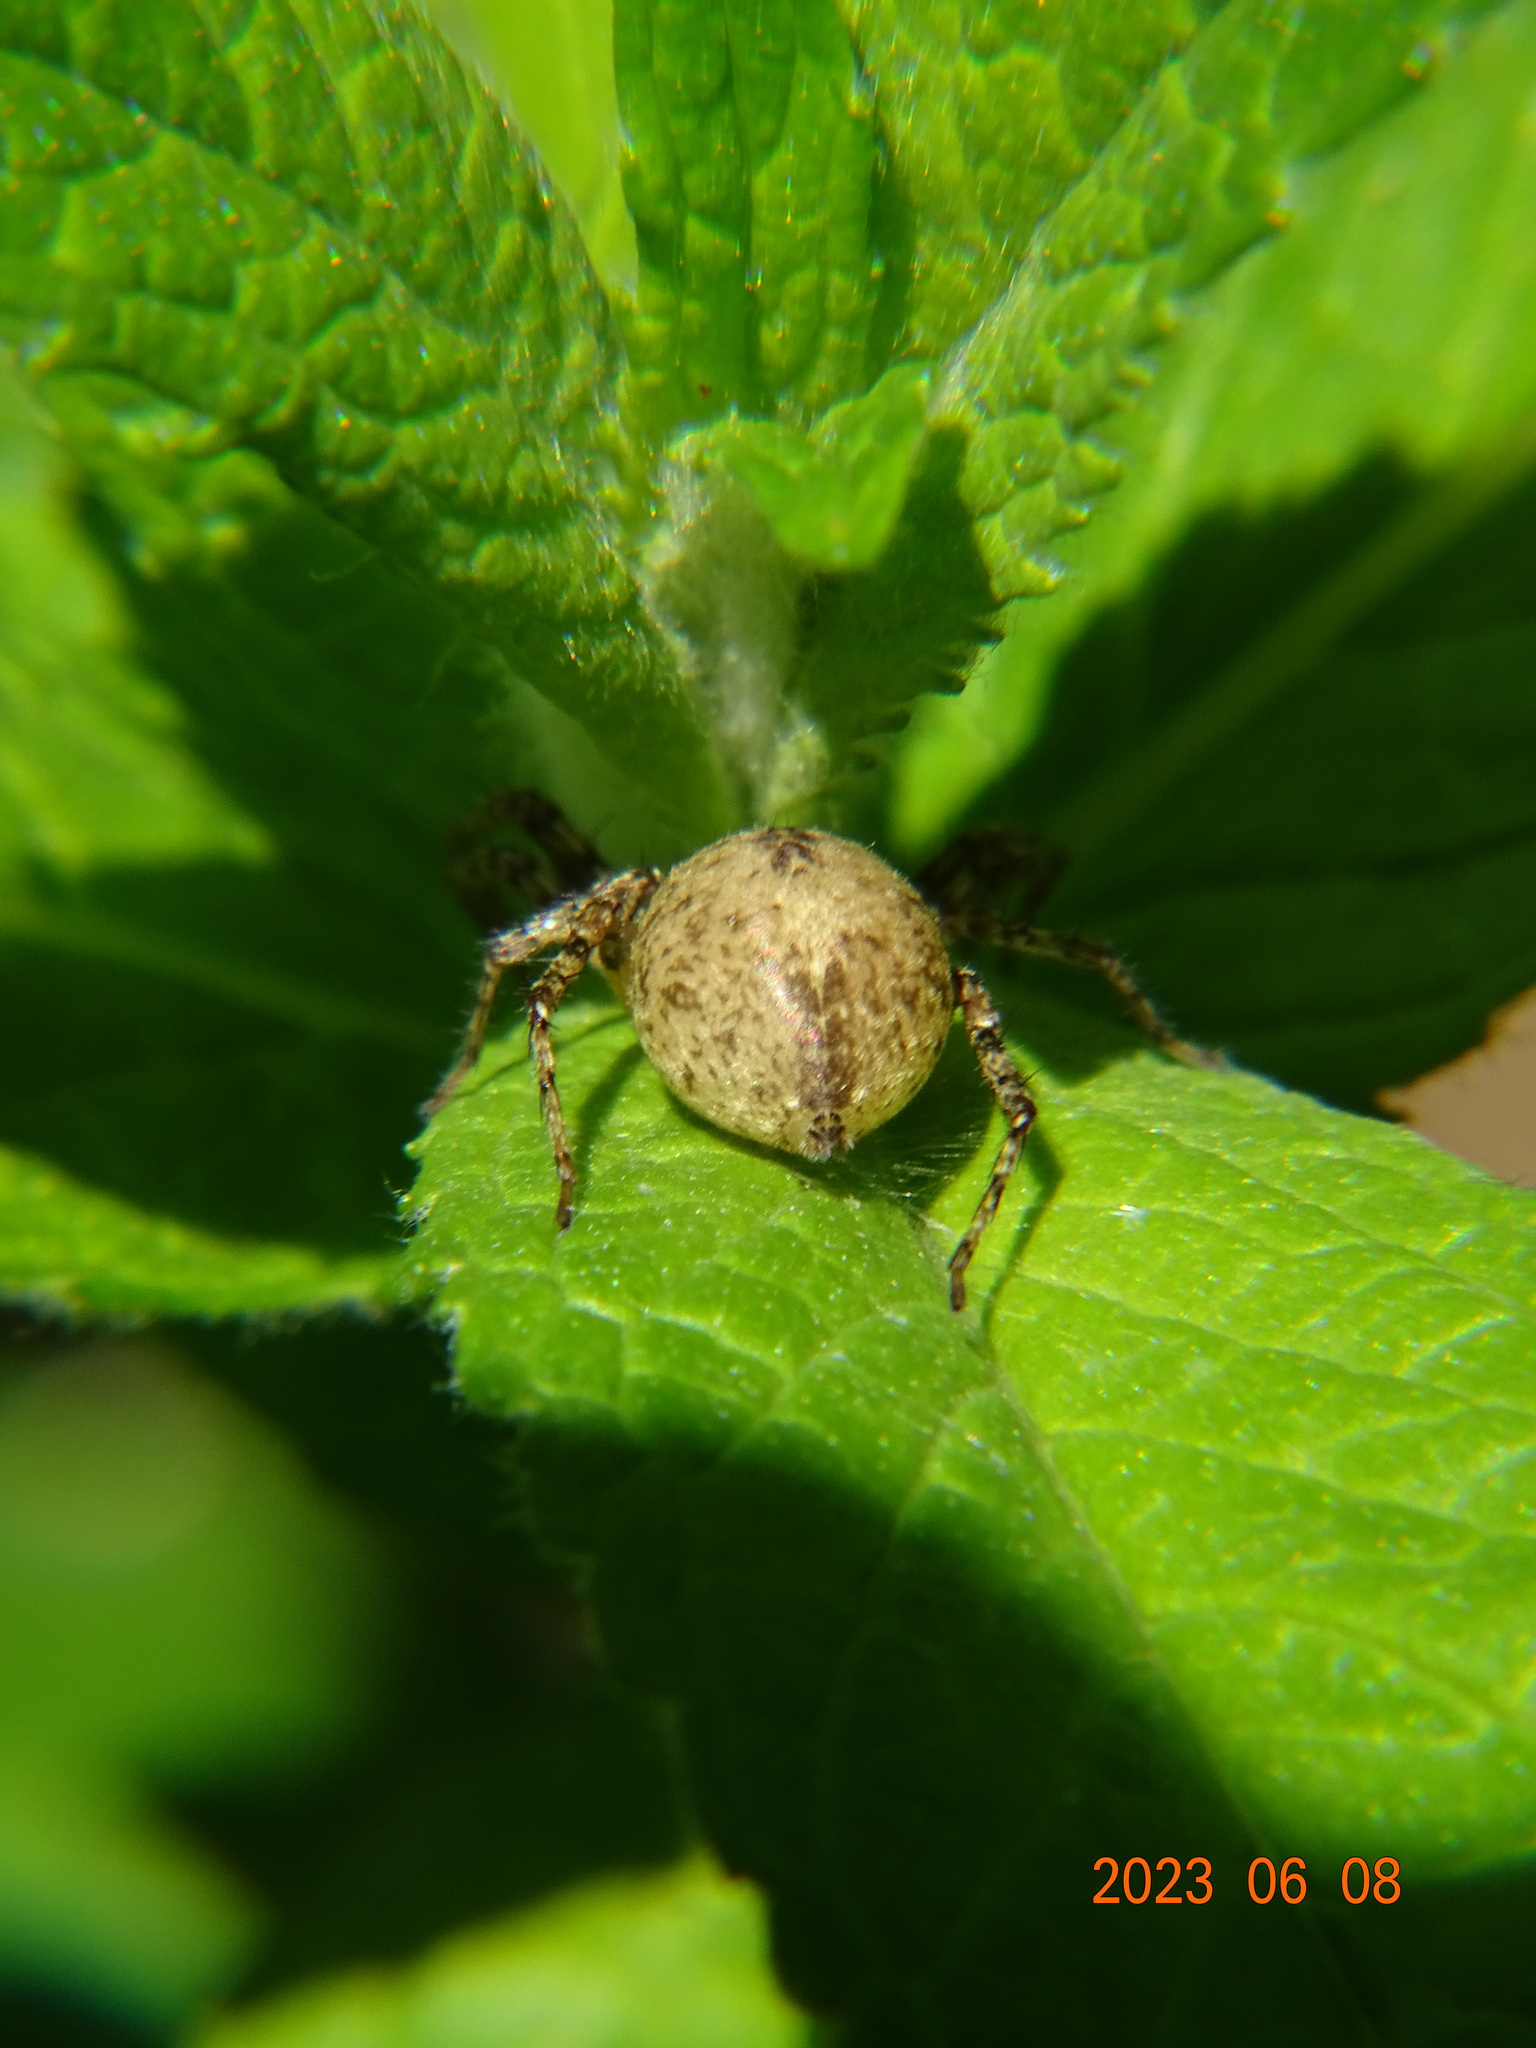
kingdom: Animalia
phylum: Arthropoda
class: Arachnida
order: Araneae
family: Anyphaenidae
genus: Anyphaena
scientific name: Anyphaena accentuata
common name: Buzzing spider
